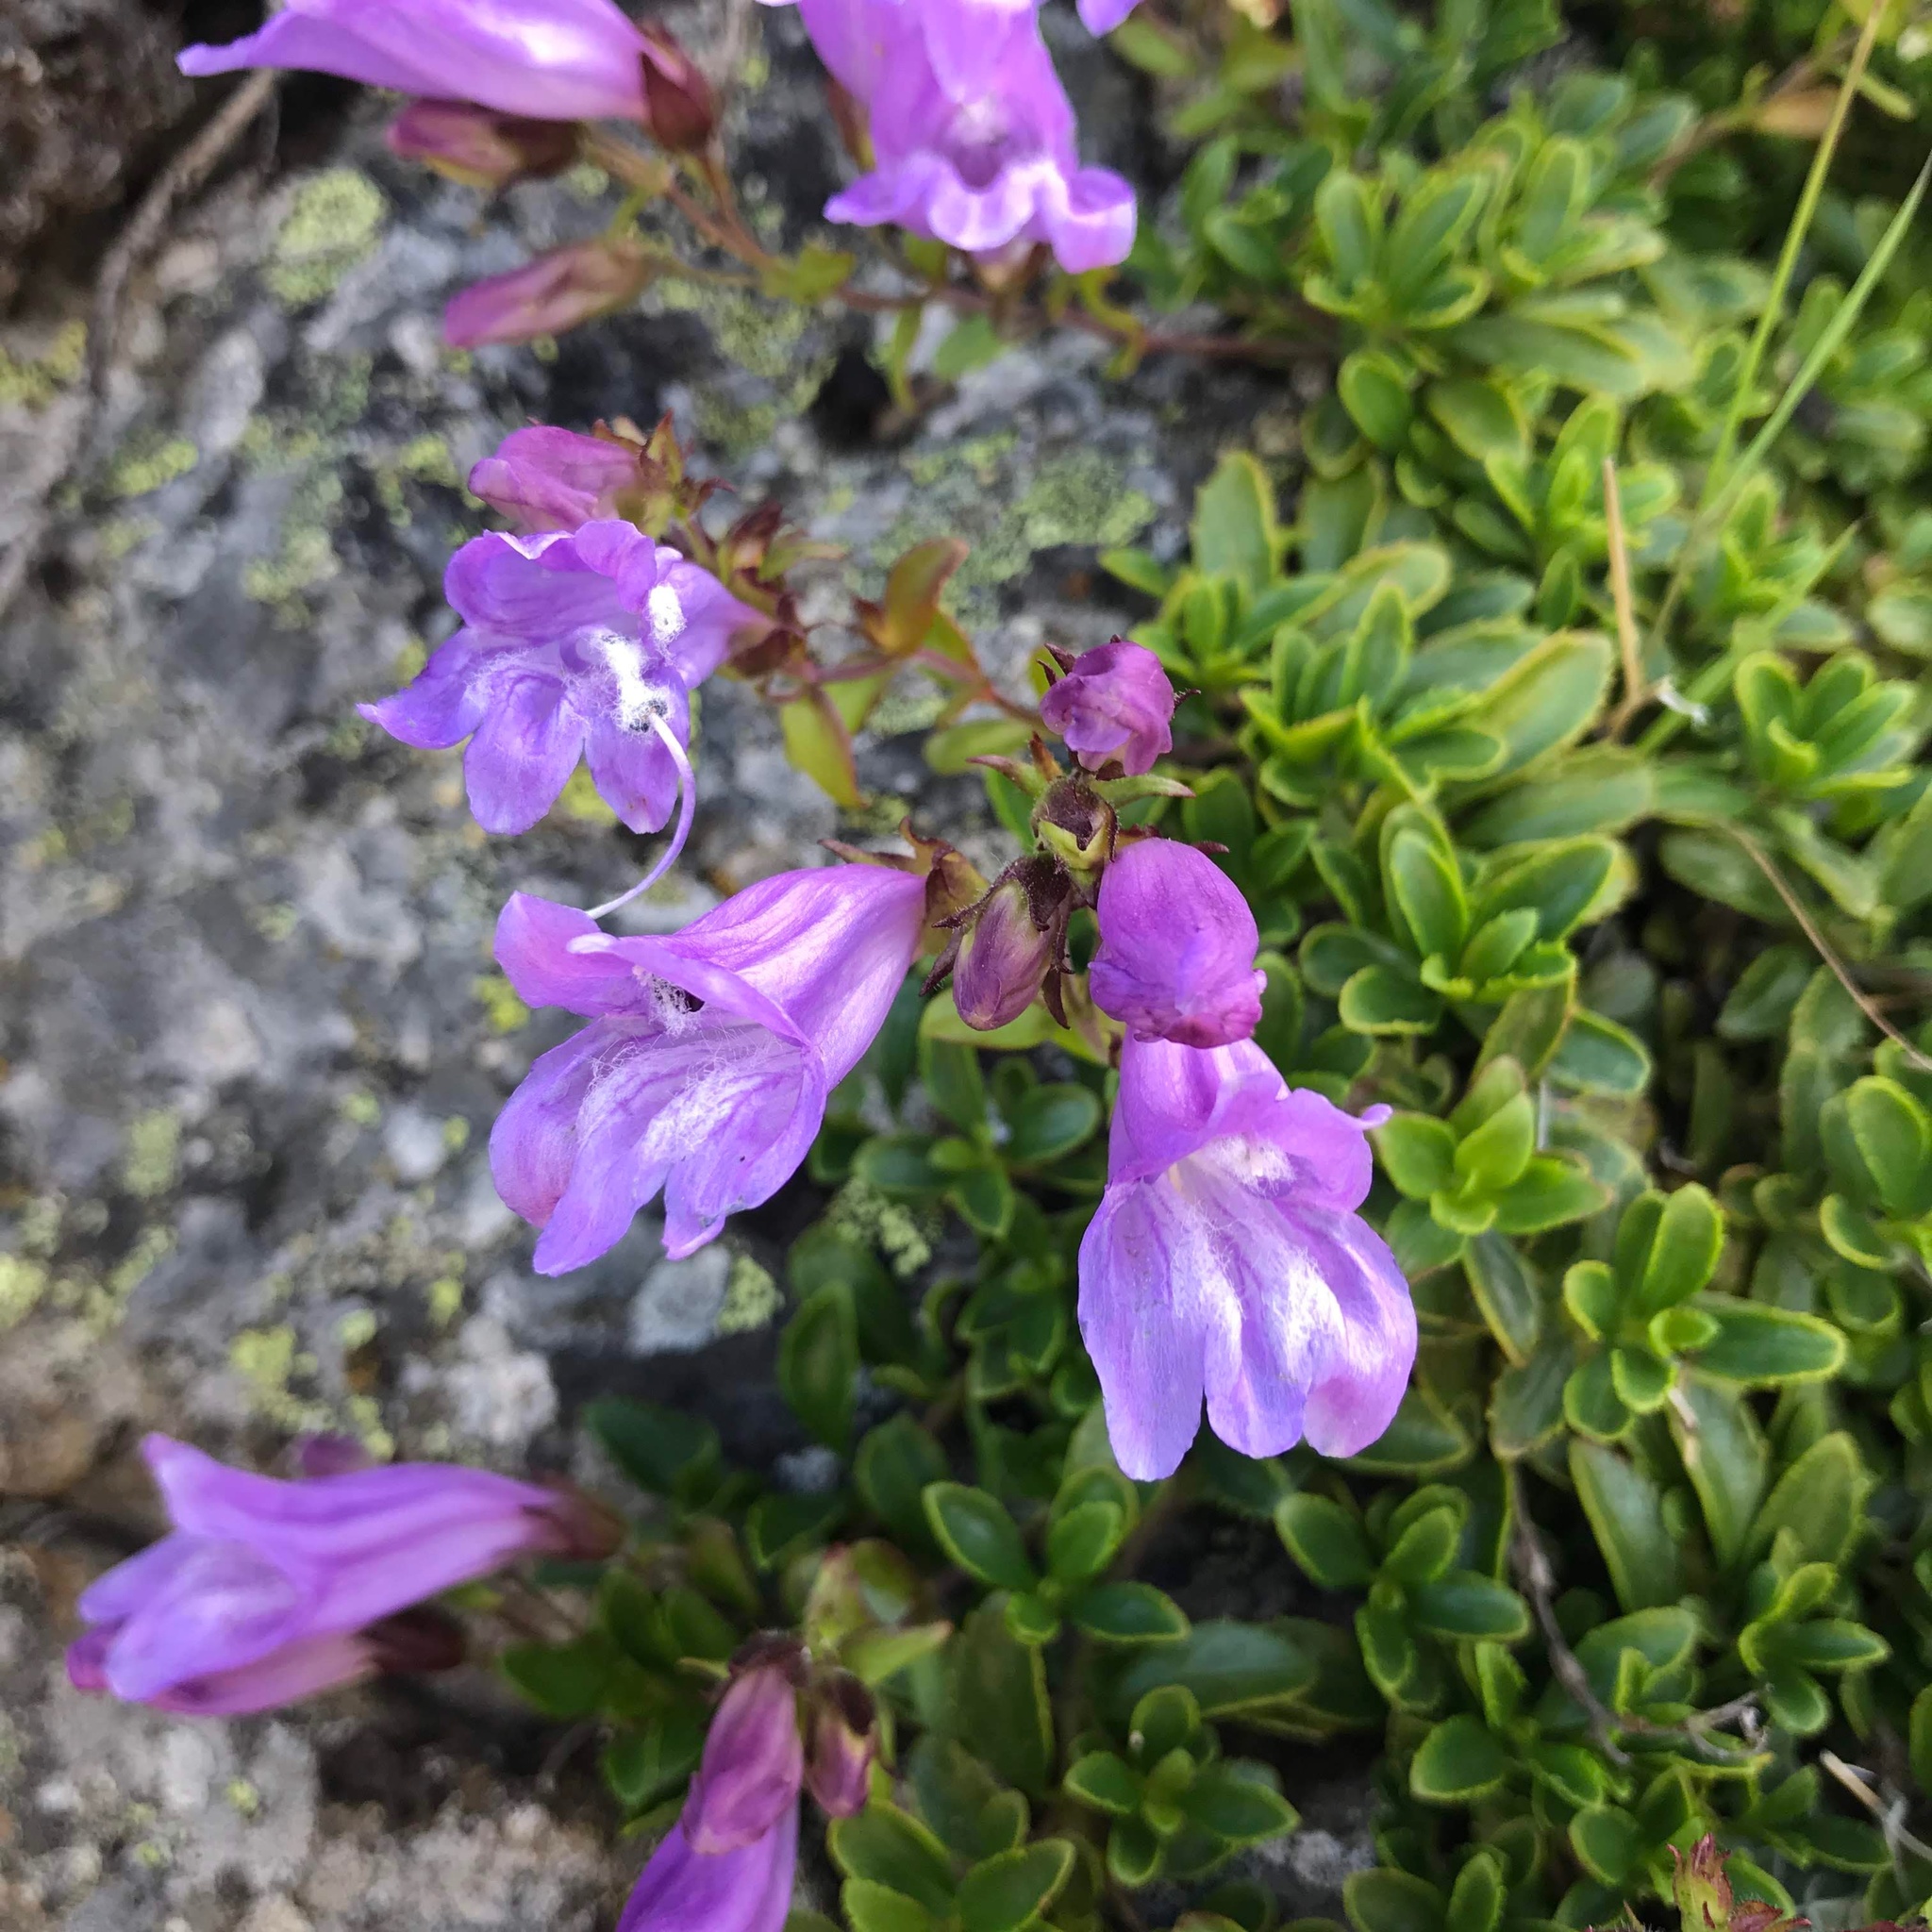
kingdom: Plantae
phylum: Tracheophyta
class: Magnoliopsida
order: Lamiales
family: Plantaginaceae
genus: Penstemon
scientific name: Penstemon davidsonii
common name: Davidson's penstemon
